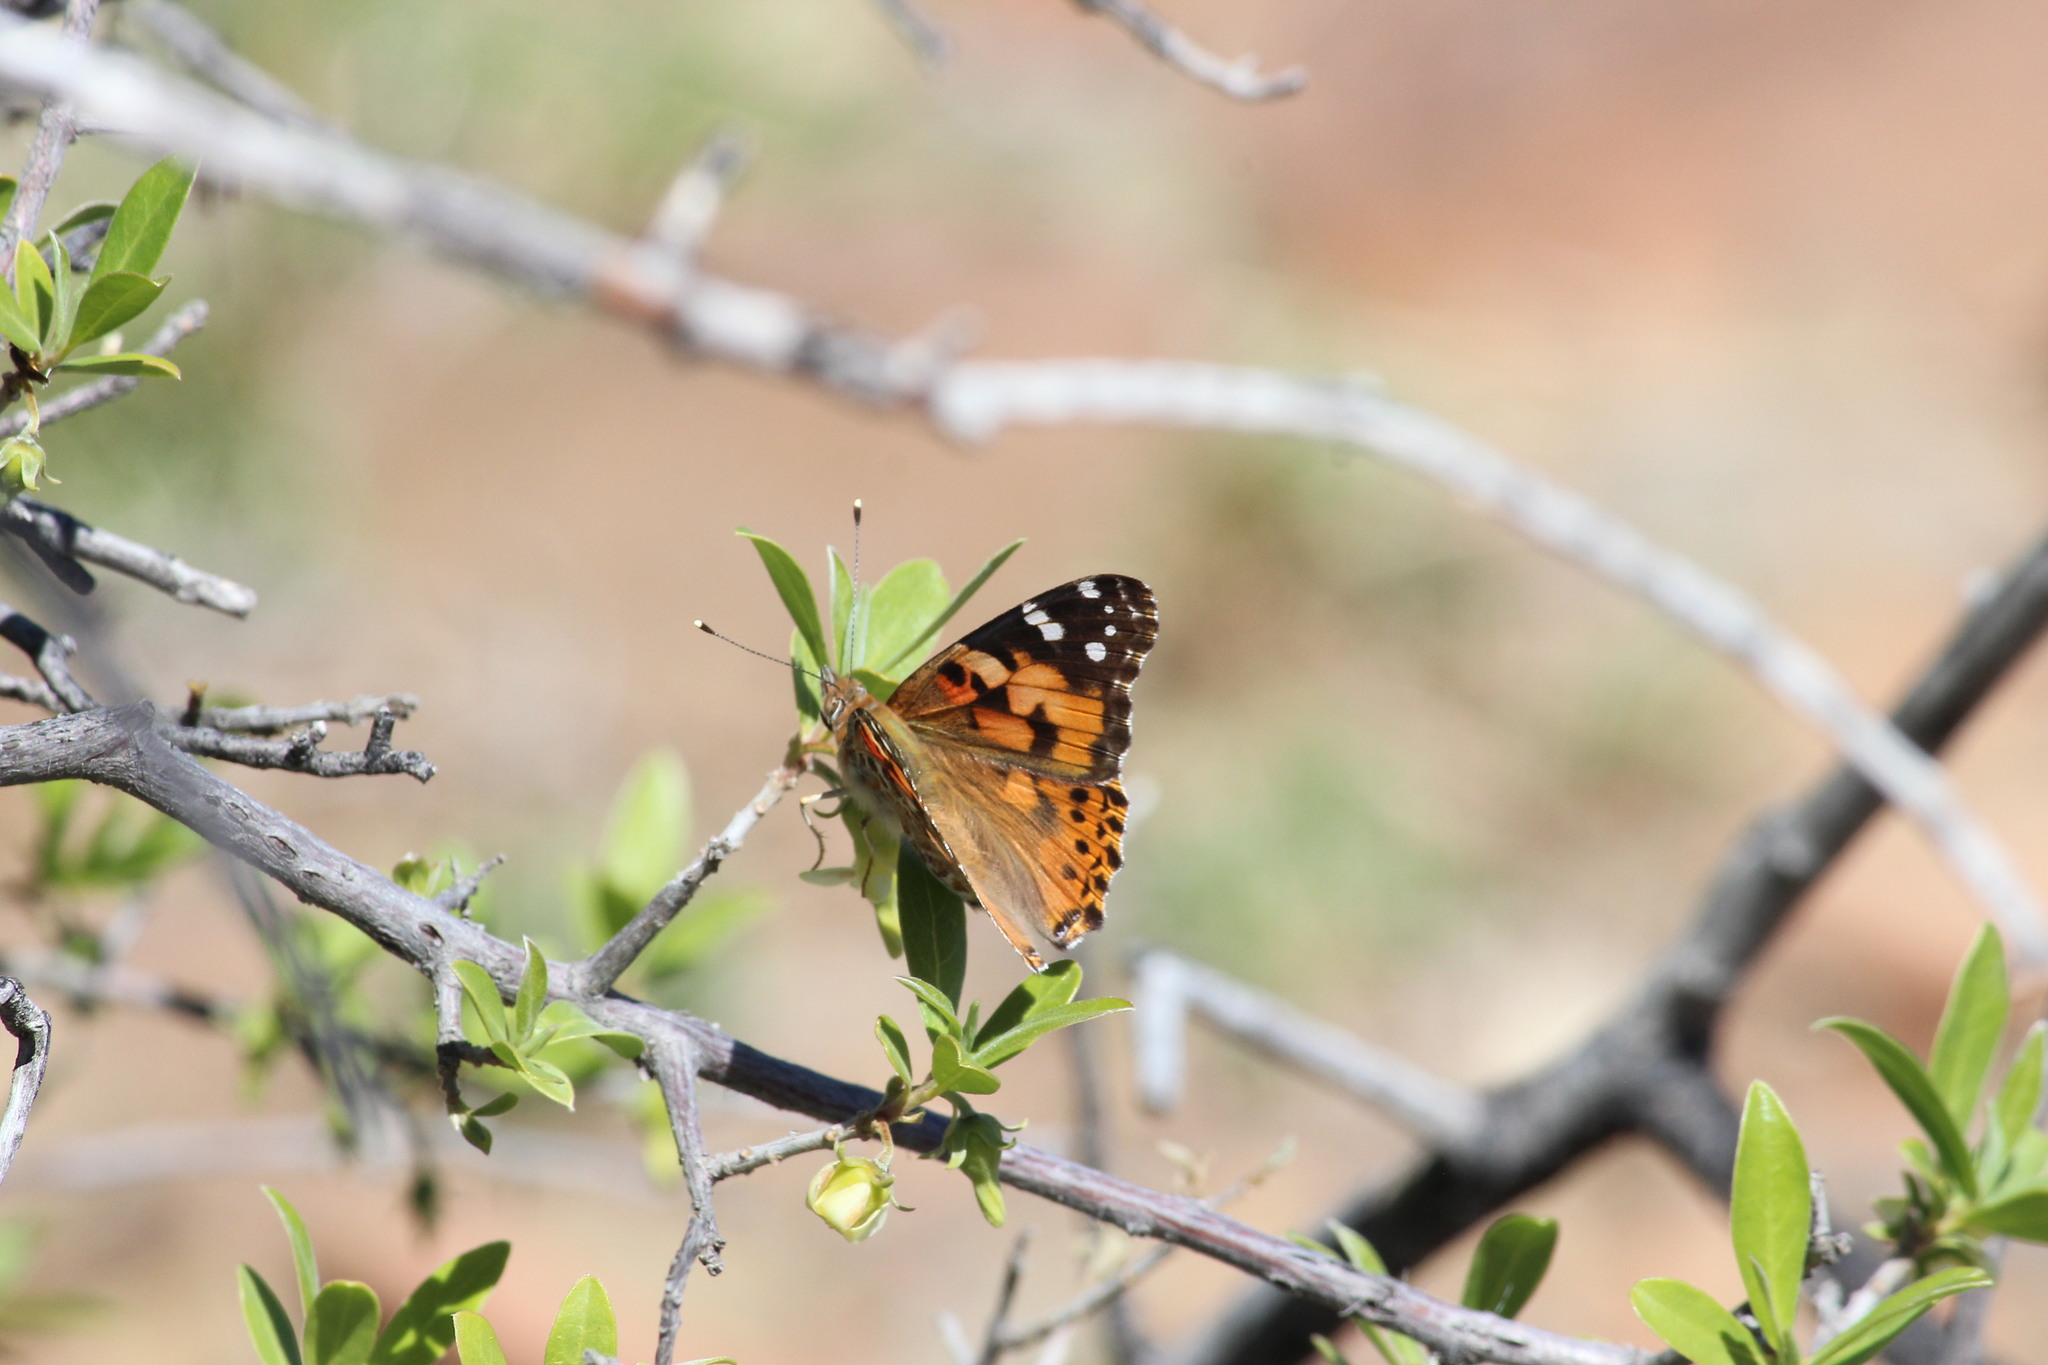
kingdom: Animalia
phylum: Arthropoda
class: Insecta
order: Lepidoptera
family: Nymphalidae
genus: Vanessa
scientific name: Vanessa cardui
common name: Painted lady
